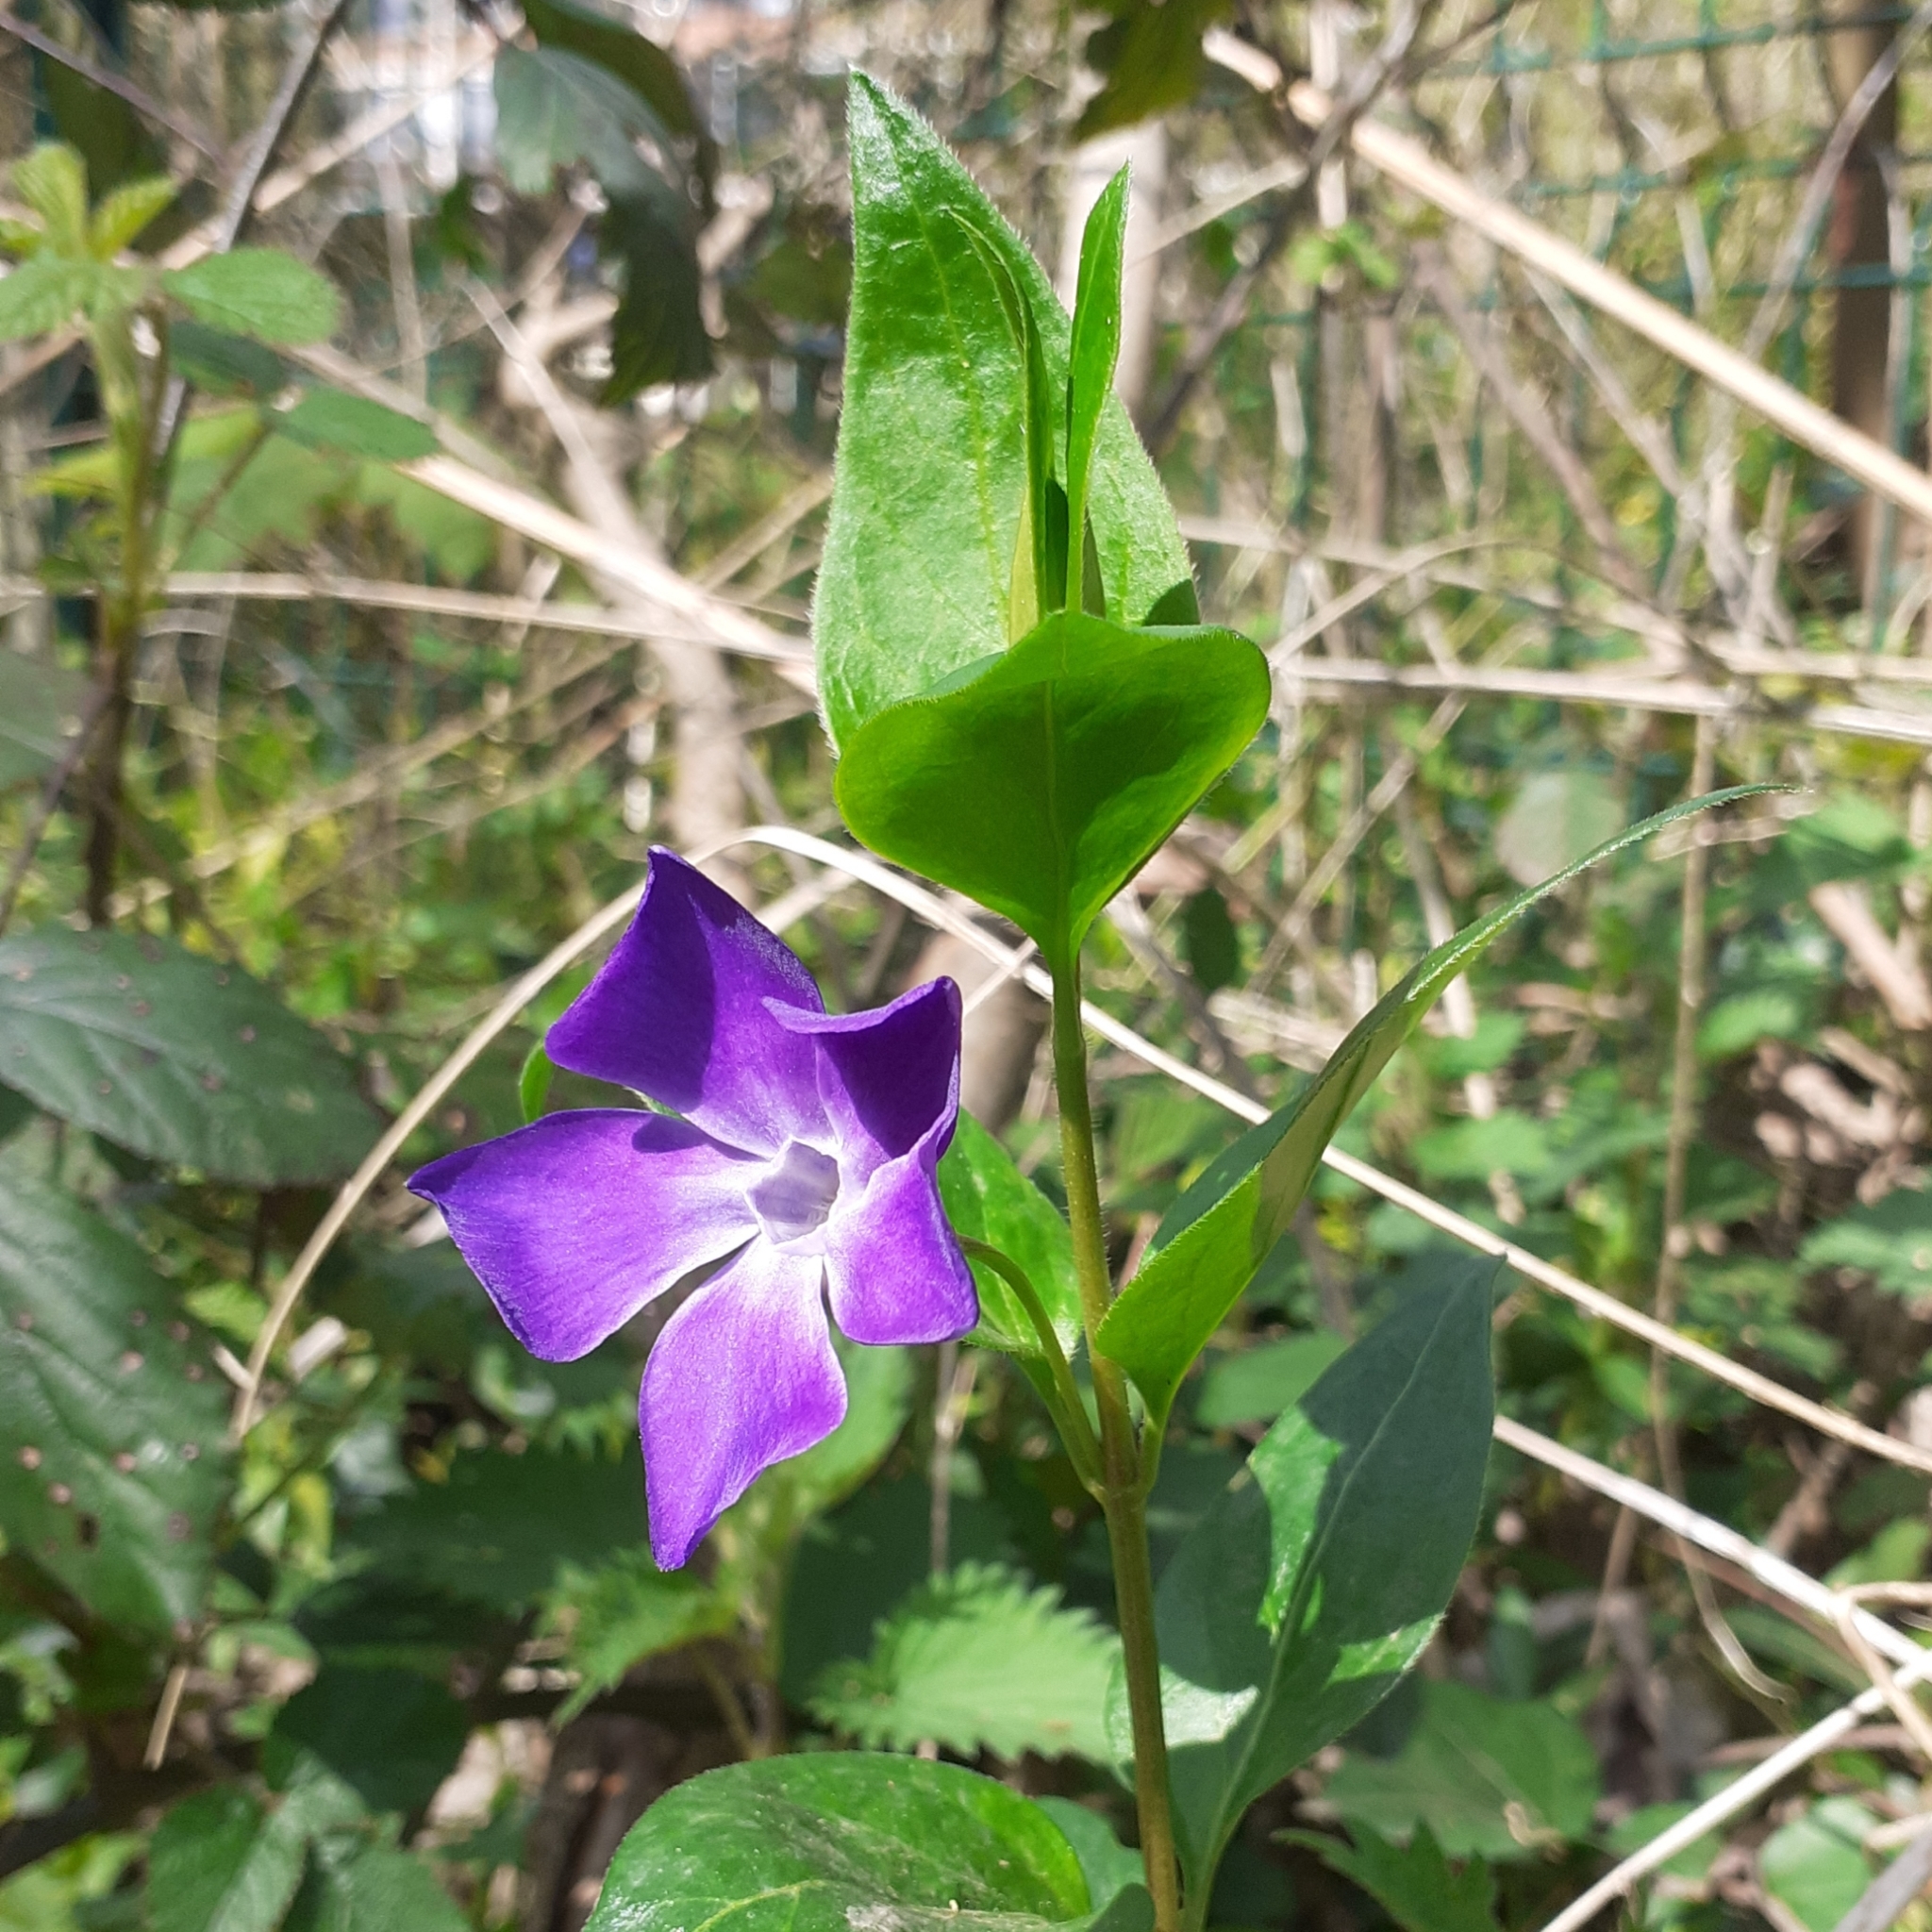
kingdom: Plantae
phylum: Tracheophyta
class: Magnoliopsida
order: Gentianales
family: Apocynaceae
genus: Vinca
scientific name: Vinca major
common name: Greater periwinkle
